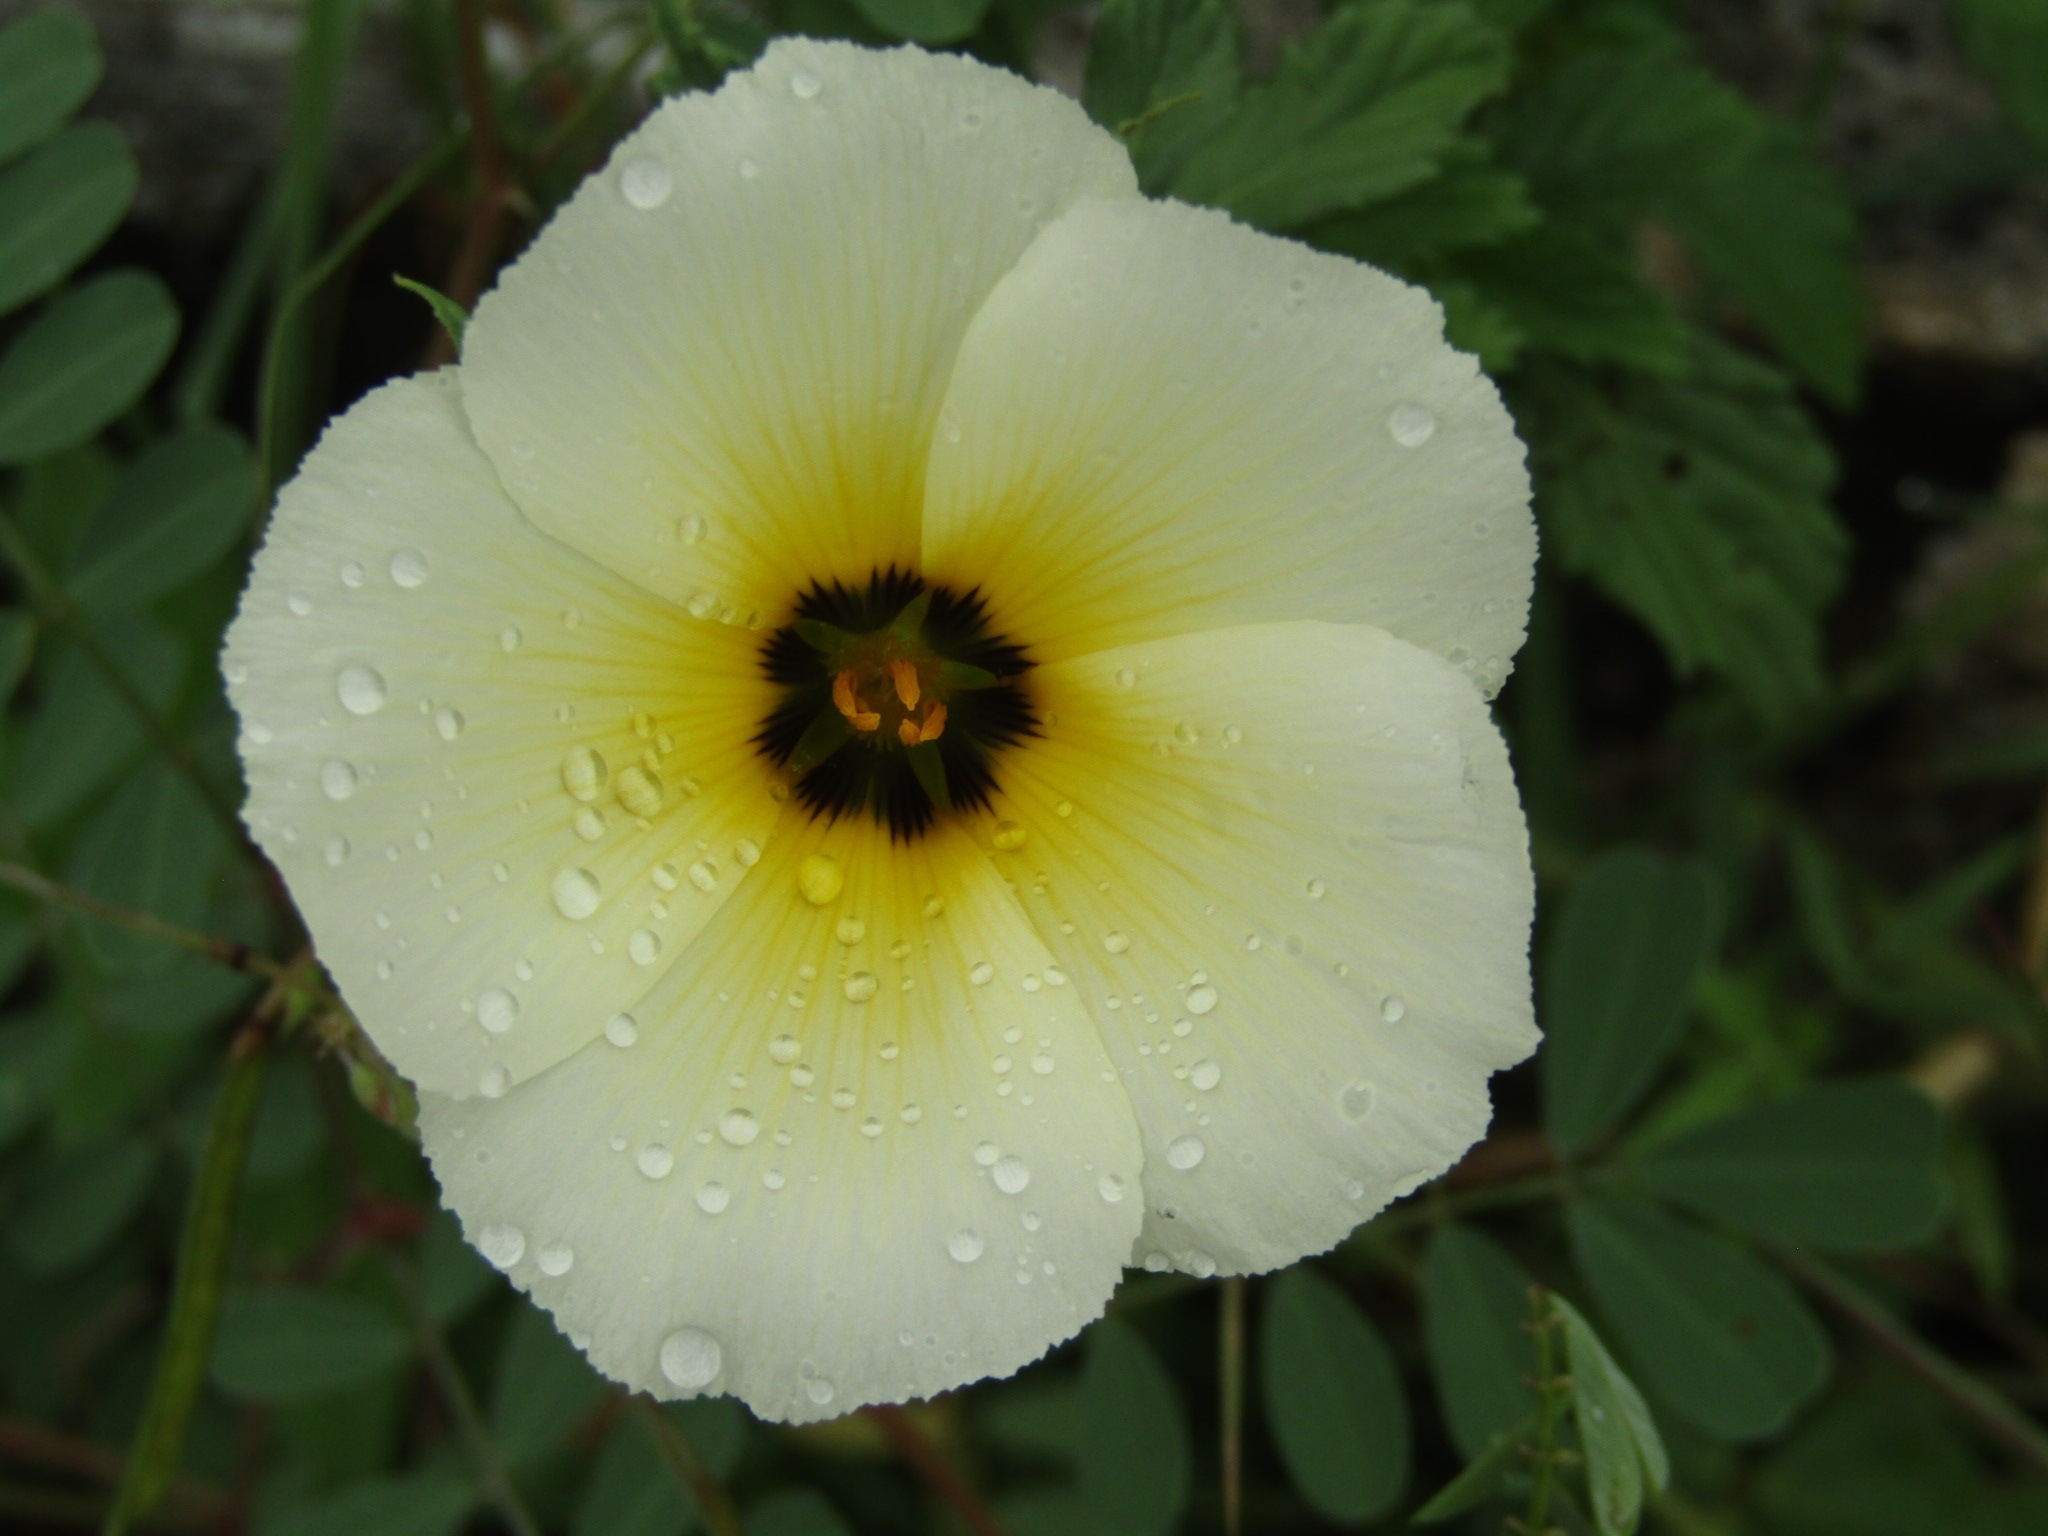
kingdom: Plantae
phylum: Tracheophyta
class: Magnoliopsida
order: Malpighiales
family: Turneraceae
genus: Turnera
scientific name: Turnera subulata
